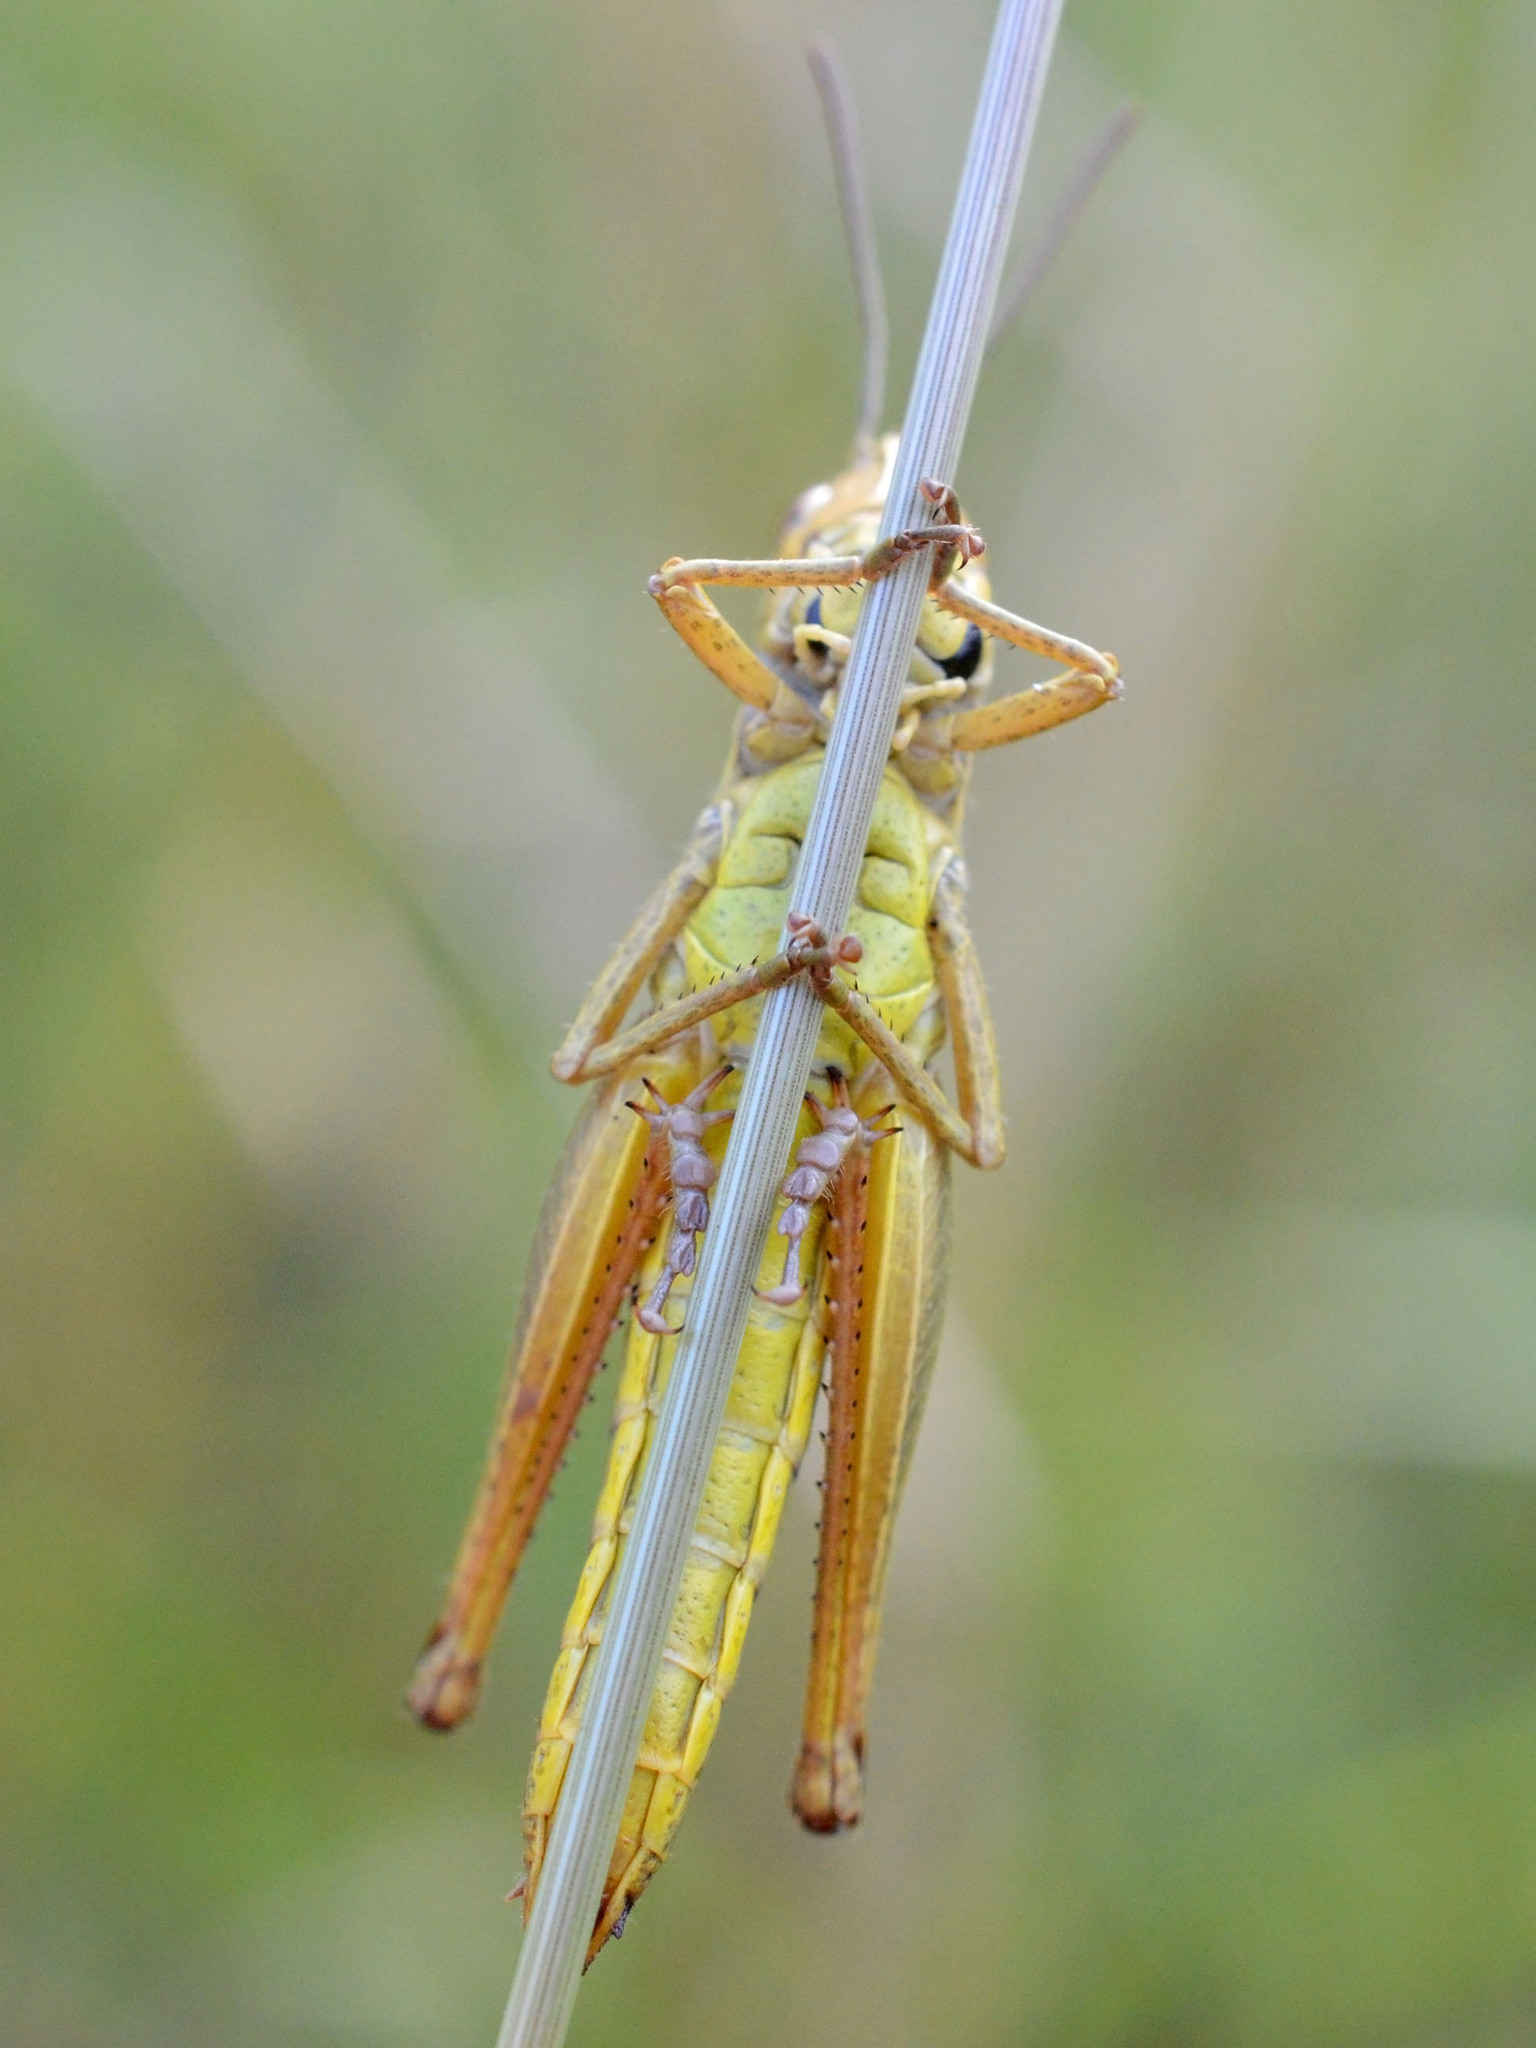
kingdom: Animalia
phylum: Arthropoda
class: Insecta
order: Orthoptera
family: Acrididae
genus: Pseudochorthippus
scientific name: Pseudochorthippus parallelus
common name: Meadow grasshopper
